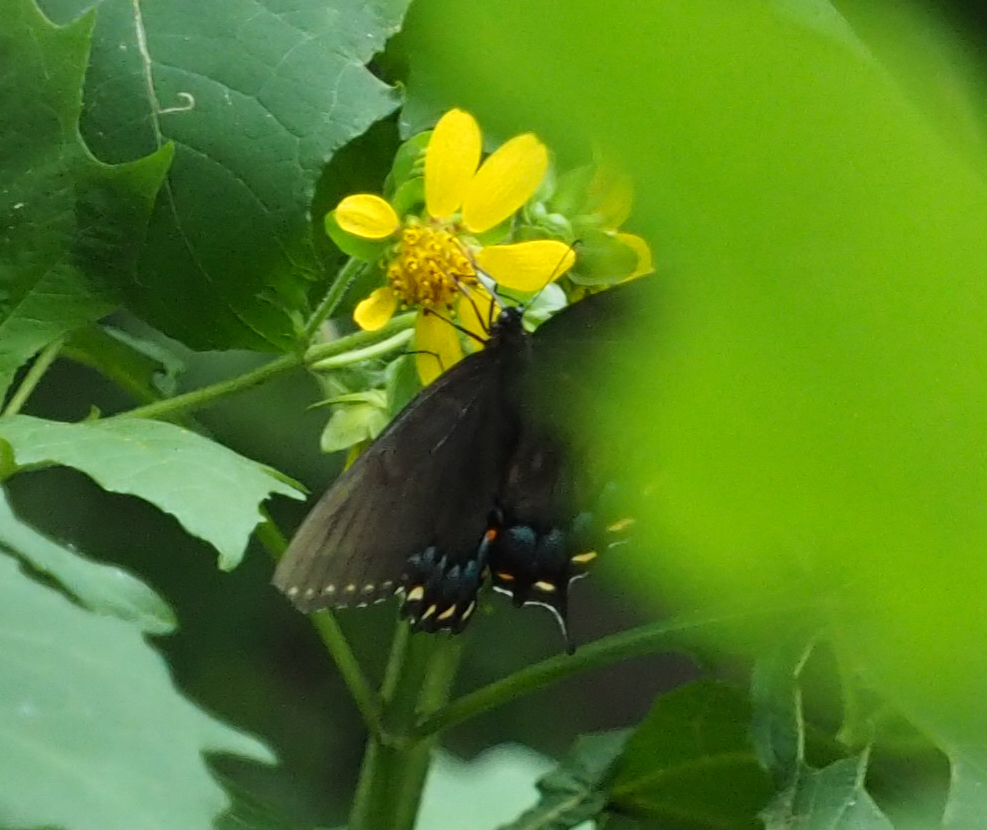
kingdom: Animalia
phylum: Arthropoda
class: Insecta
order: Lepidoptera
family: Papilionidae
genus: Papilio
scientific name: Papilio glaucus
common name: Tiger swallowtail
